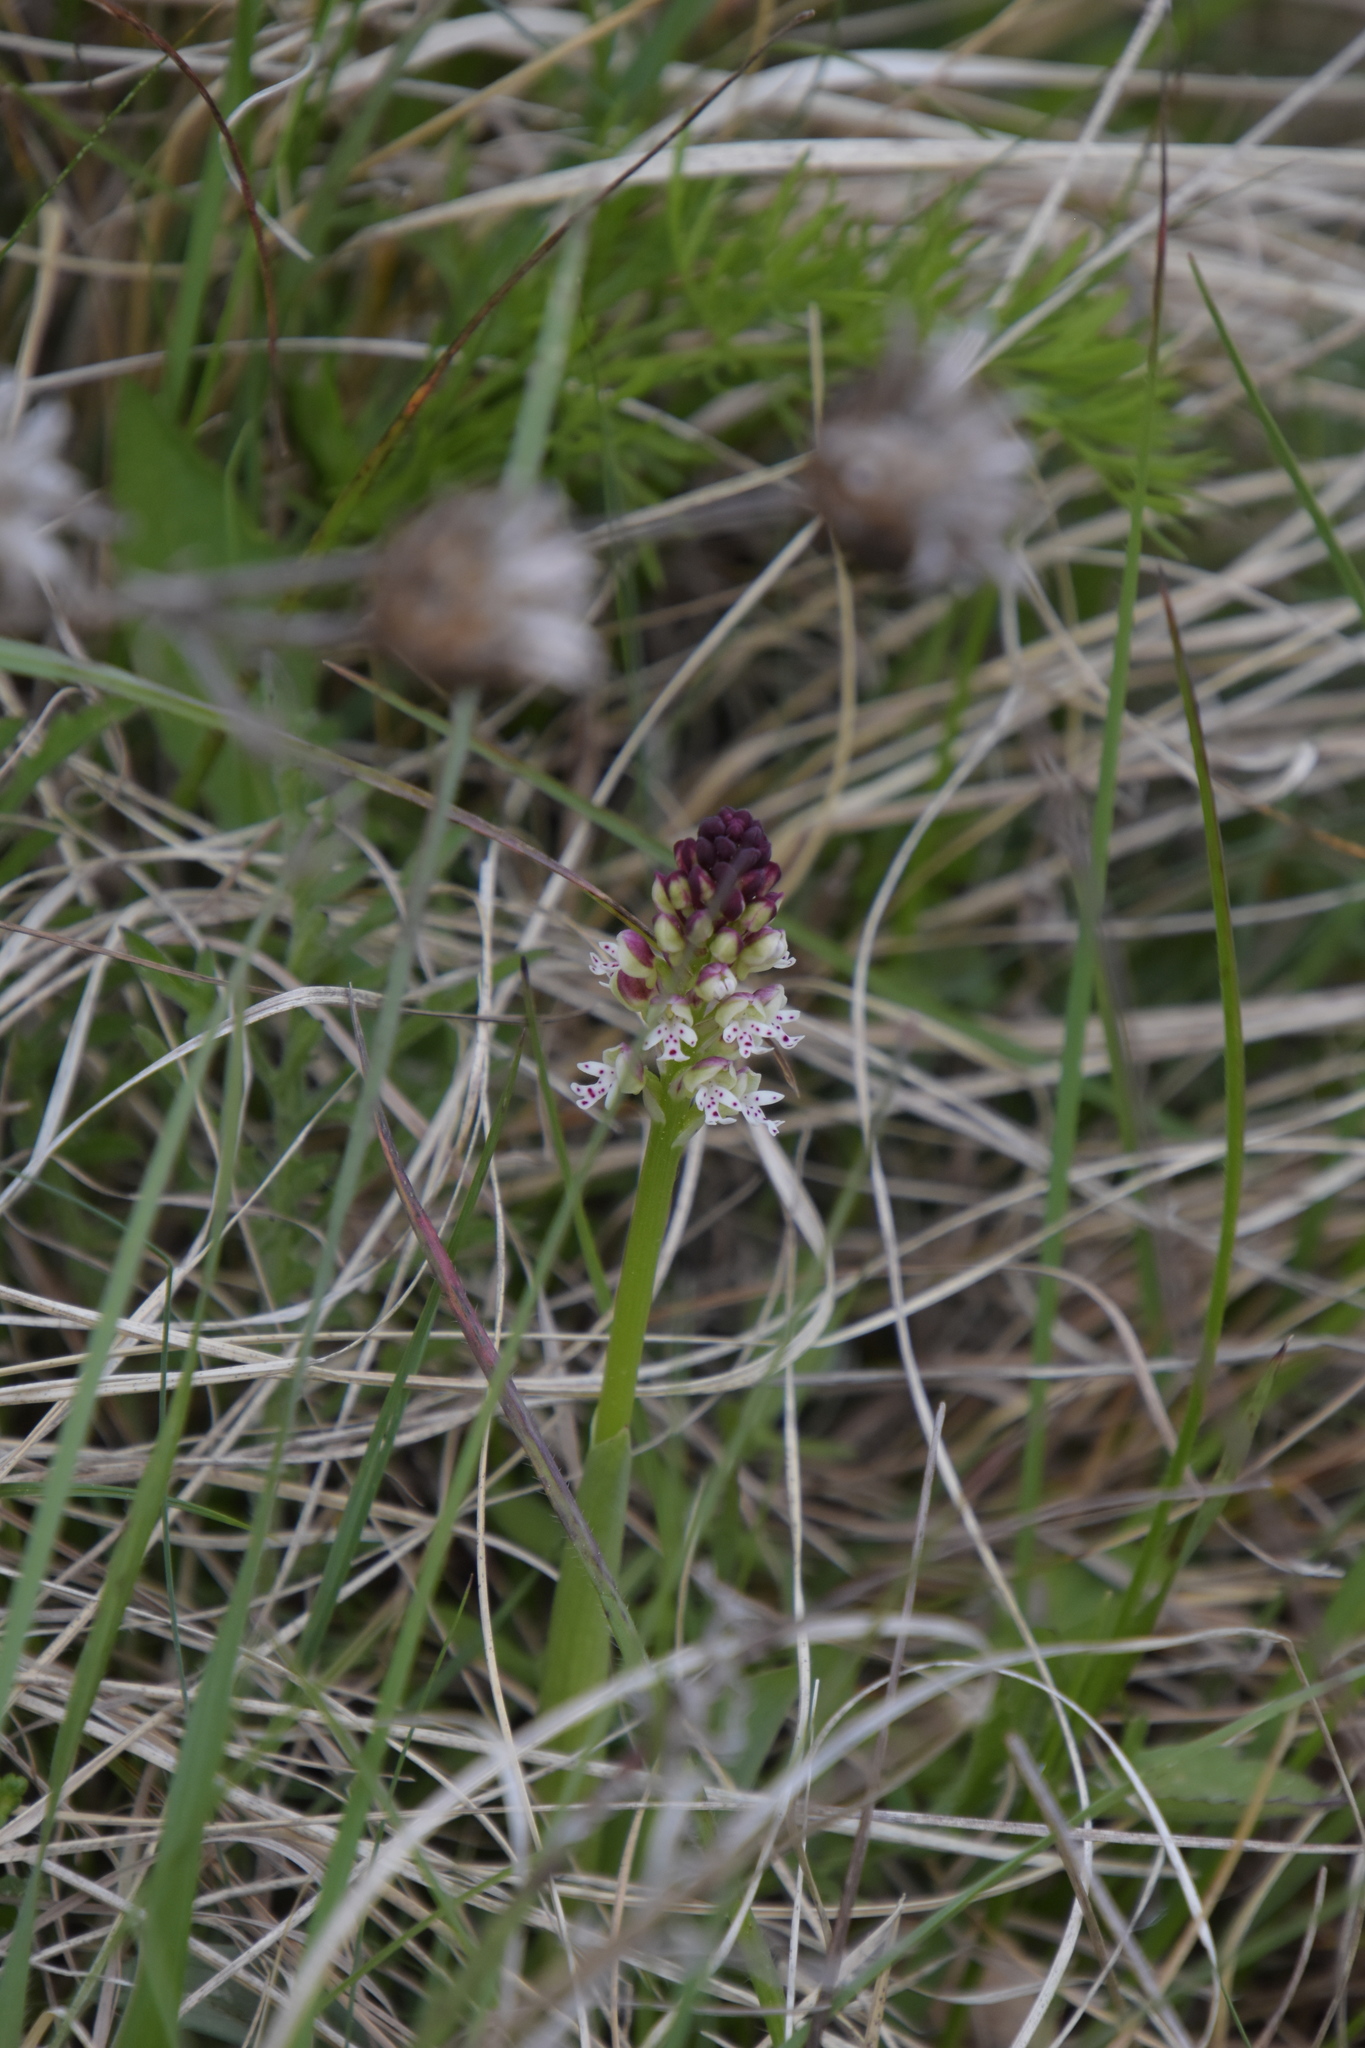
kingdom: Plantae
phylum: Tracheophyta
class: Liliopsida
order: Asparagales
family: Orchidaceae
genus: Neotinea
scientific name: Neotinea ustulata
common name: Burnt orchid
